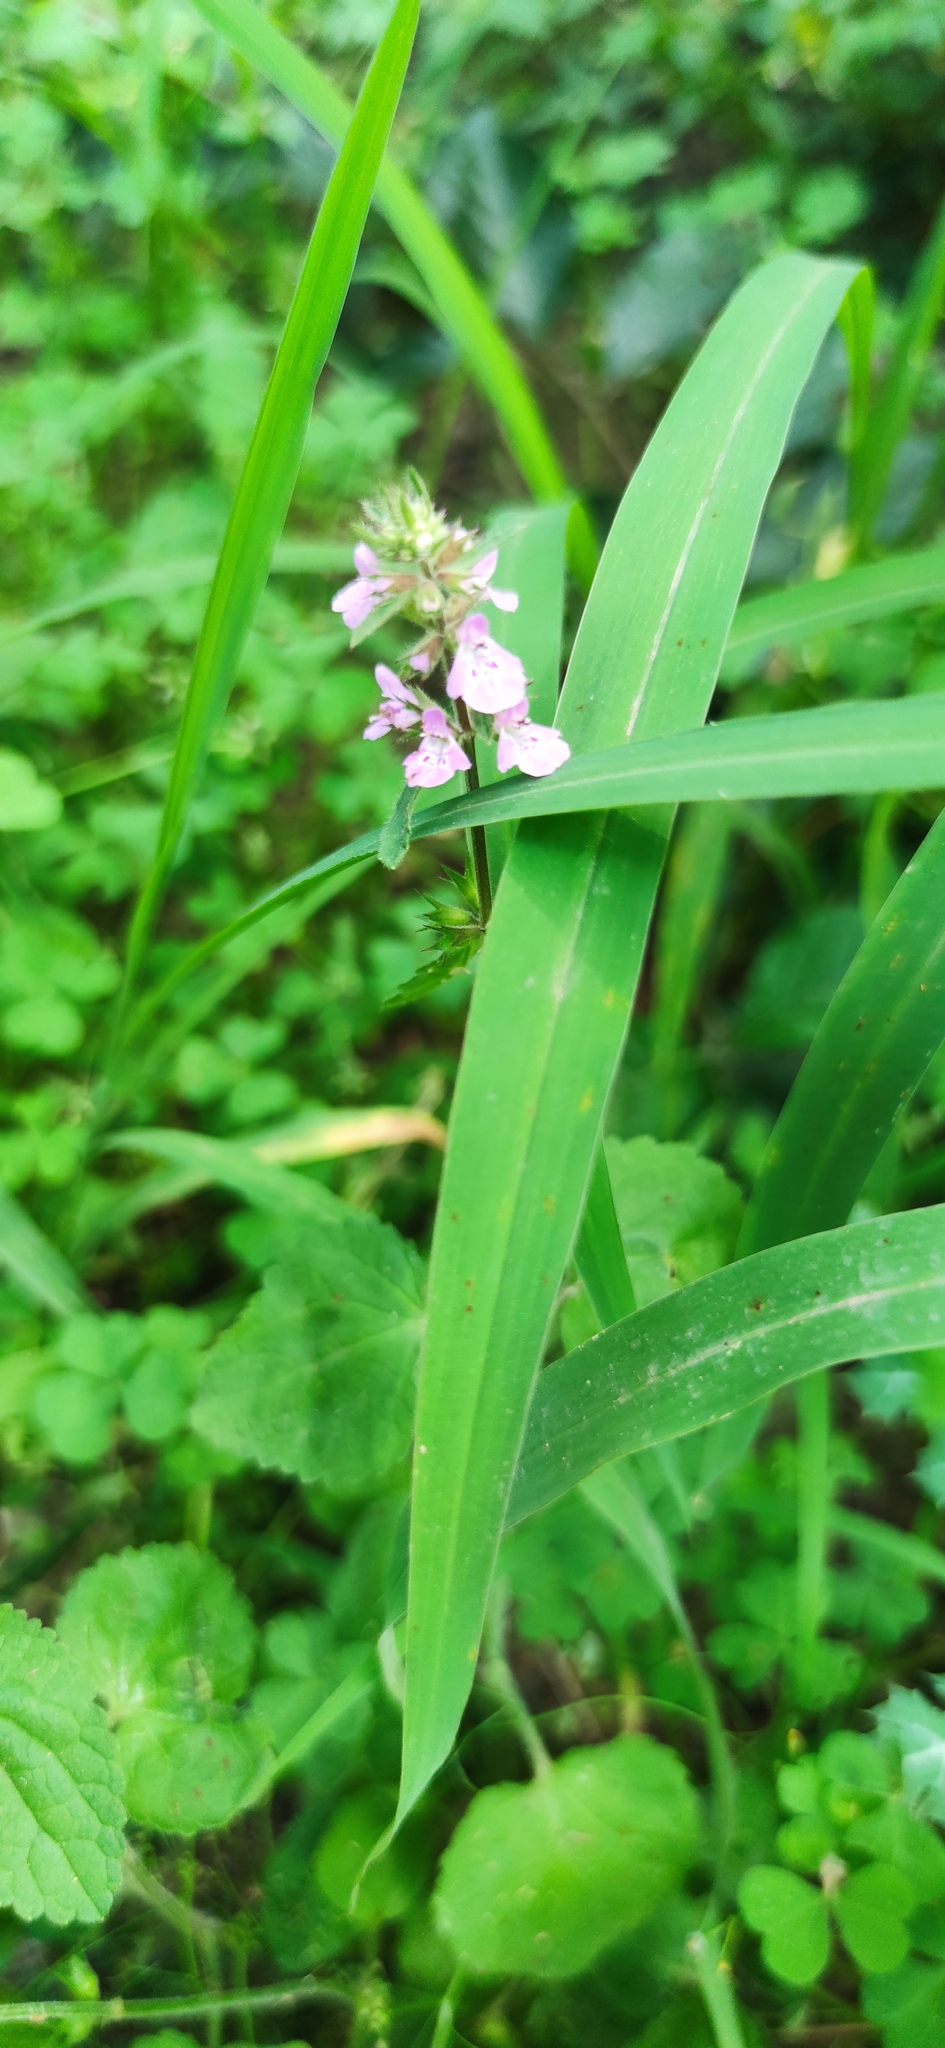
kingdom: Plantae
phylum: Tracheophyta
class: Magnoliopsida
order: Lamiales
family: Lamiaceae
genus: Stachys
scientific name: Stachys drummondii
